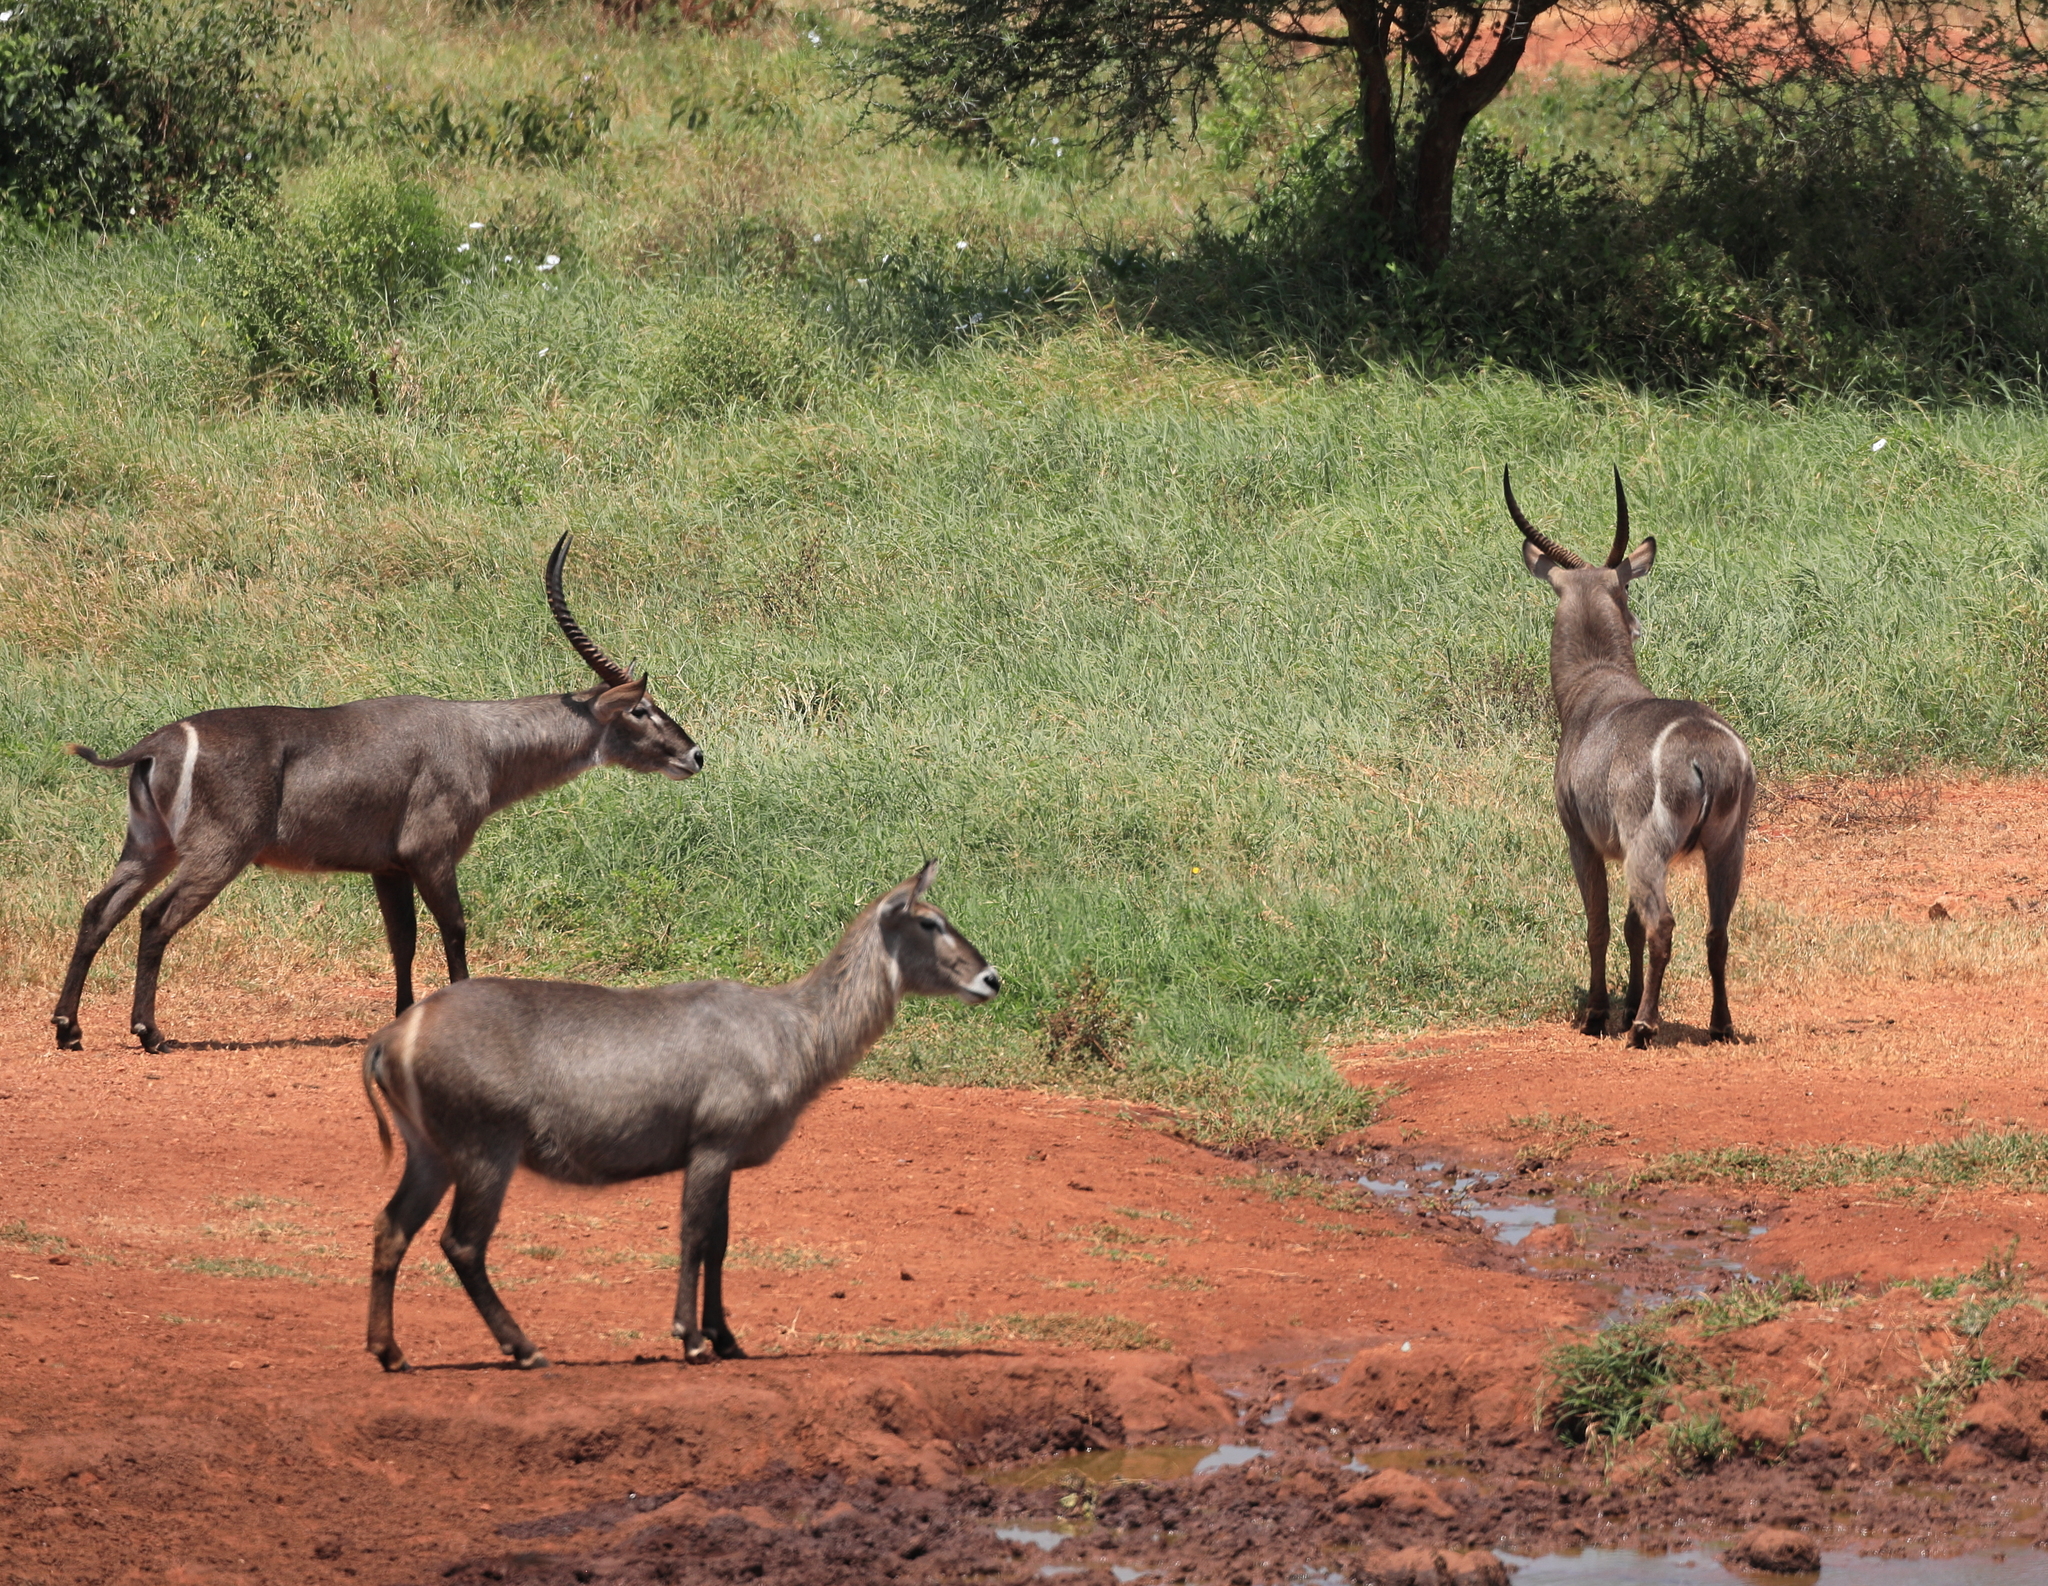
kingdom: Animalia
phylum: Chordata
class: Mammalia
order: Artiodactyla
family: Bovidae
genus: Kobus
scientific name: Kobus ellipsiprymnus
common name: Waterbuck
